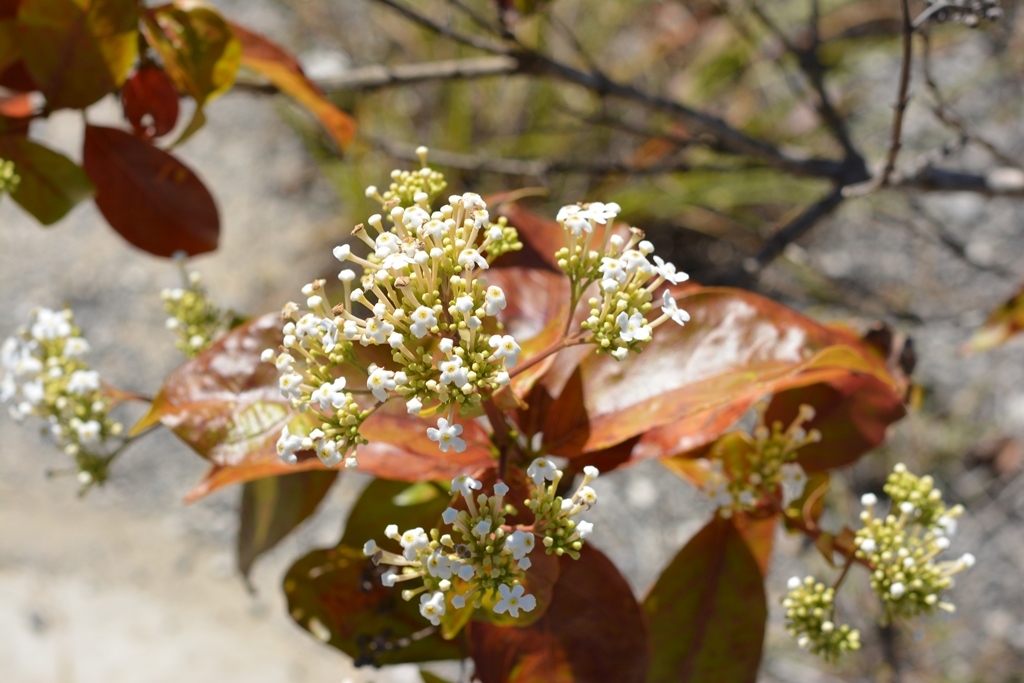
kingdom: Plantae
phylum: Tracheophyta
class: Magnoliopsida
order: Gentianales
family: Rubiaceae
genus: Rogiera
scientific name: Rogiera stenosiphon
